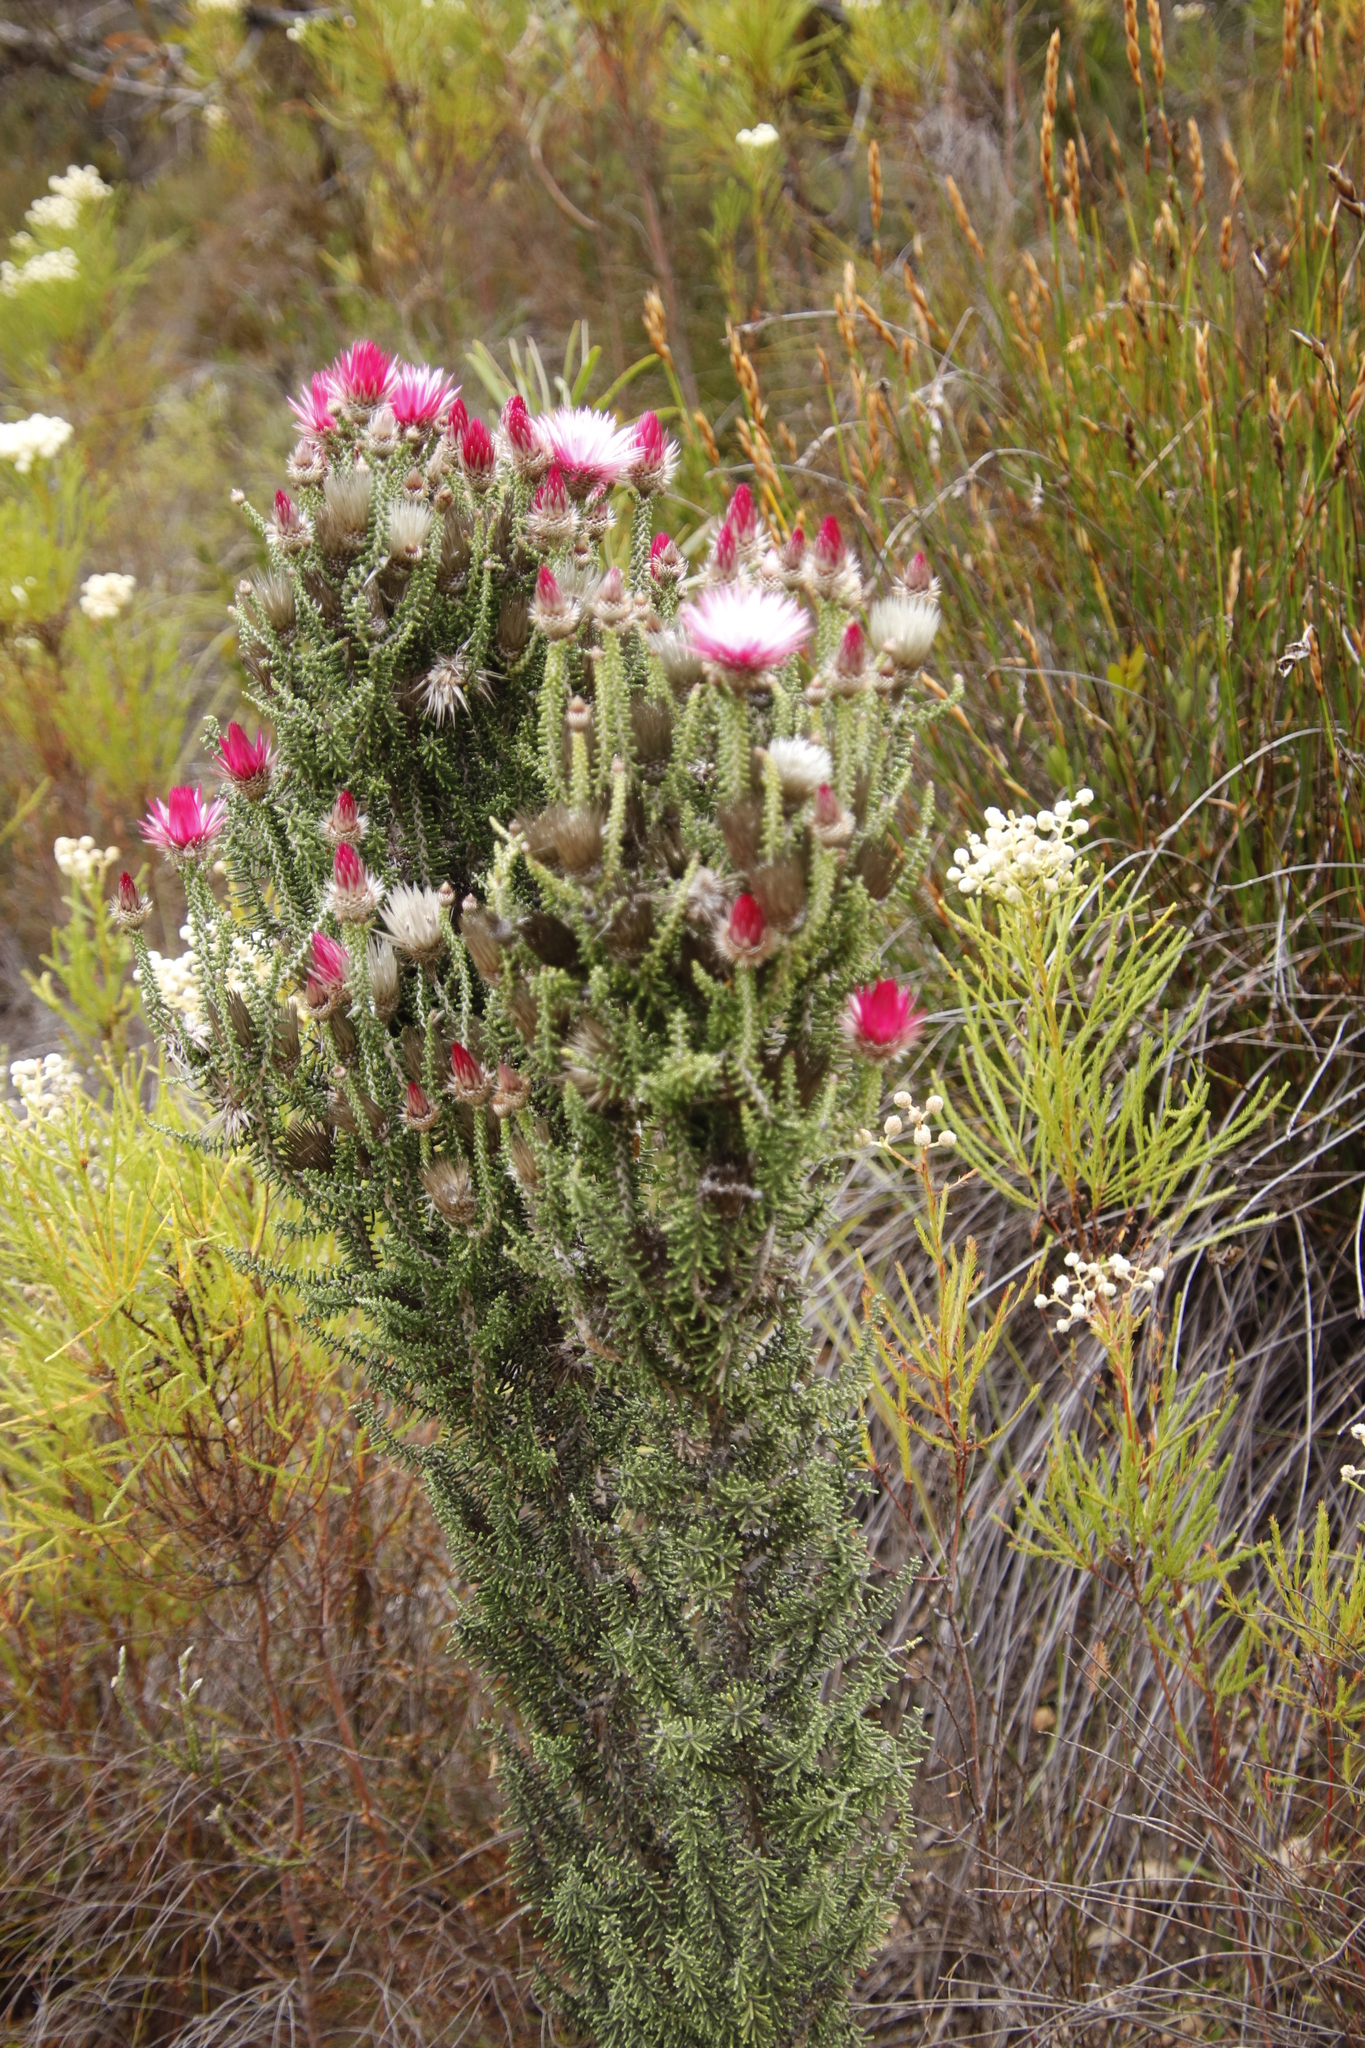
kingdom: Plantae
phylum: Tracheophyta
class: Magnoliopsida
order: Asterales
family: Asteraceae
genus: Phaenocoma
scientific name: Phaenocoma prolifera
